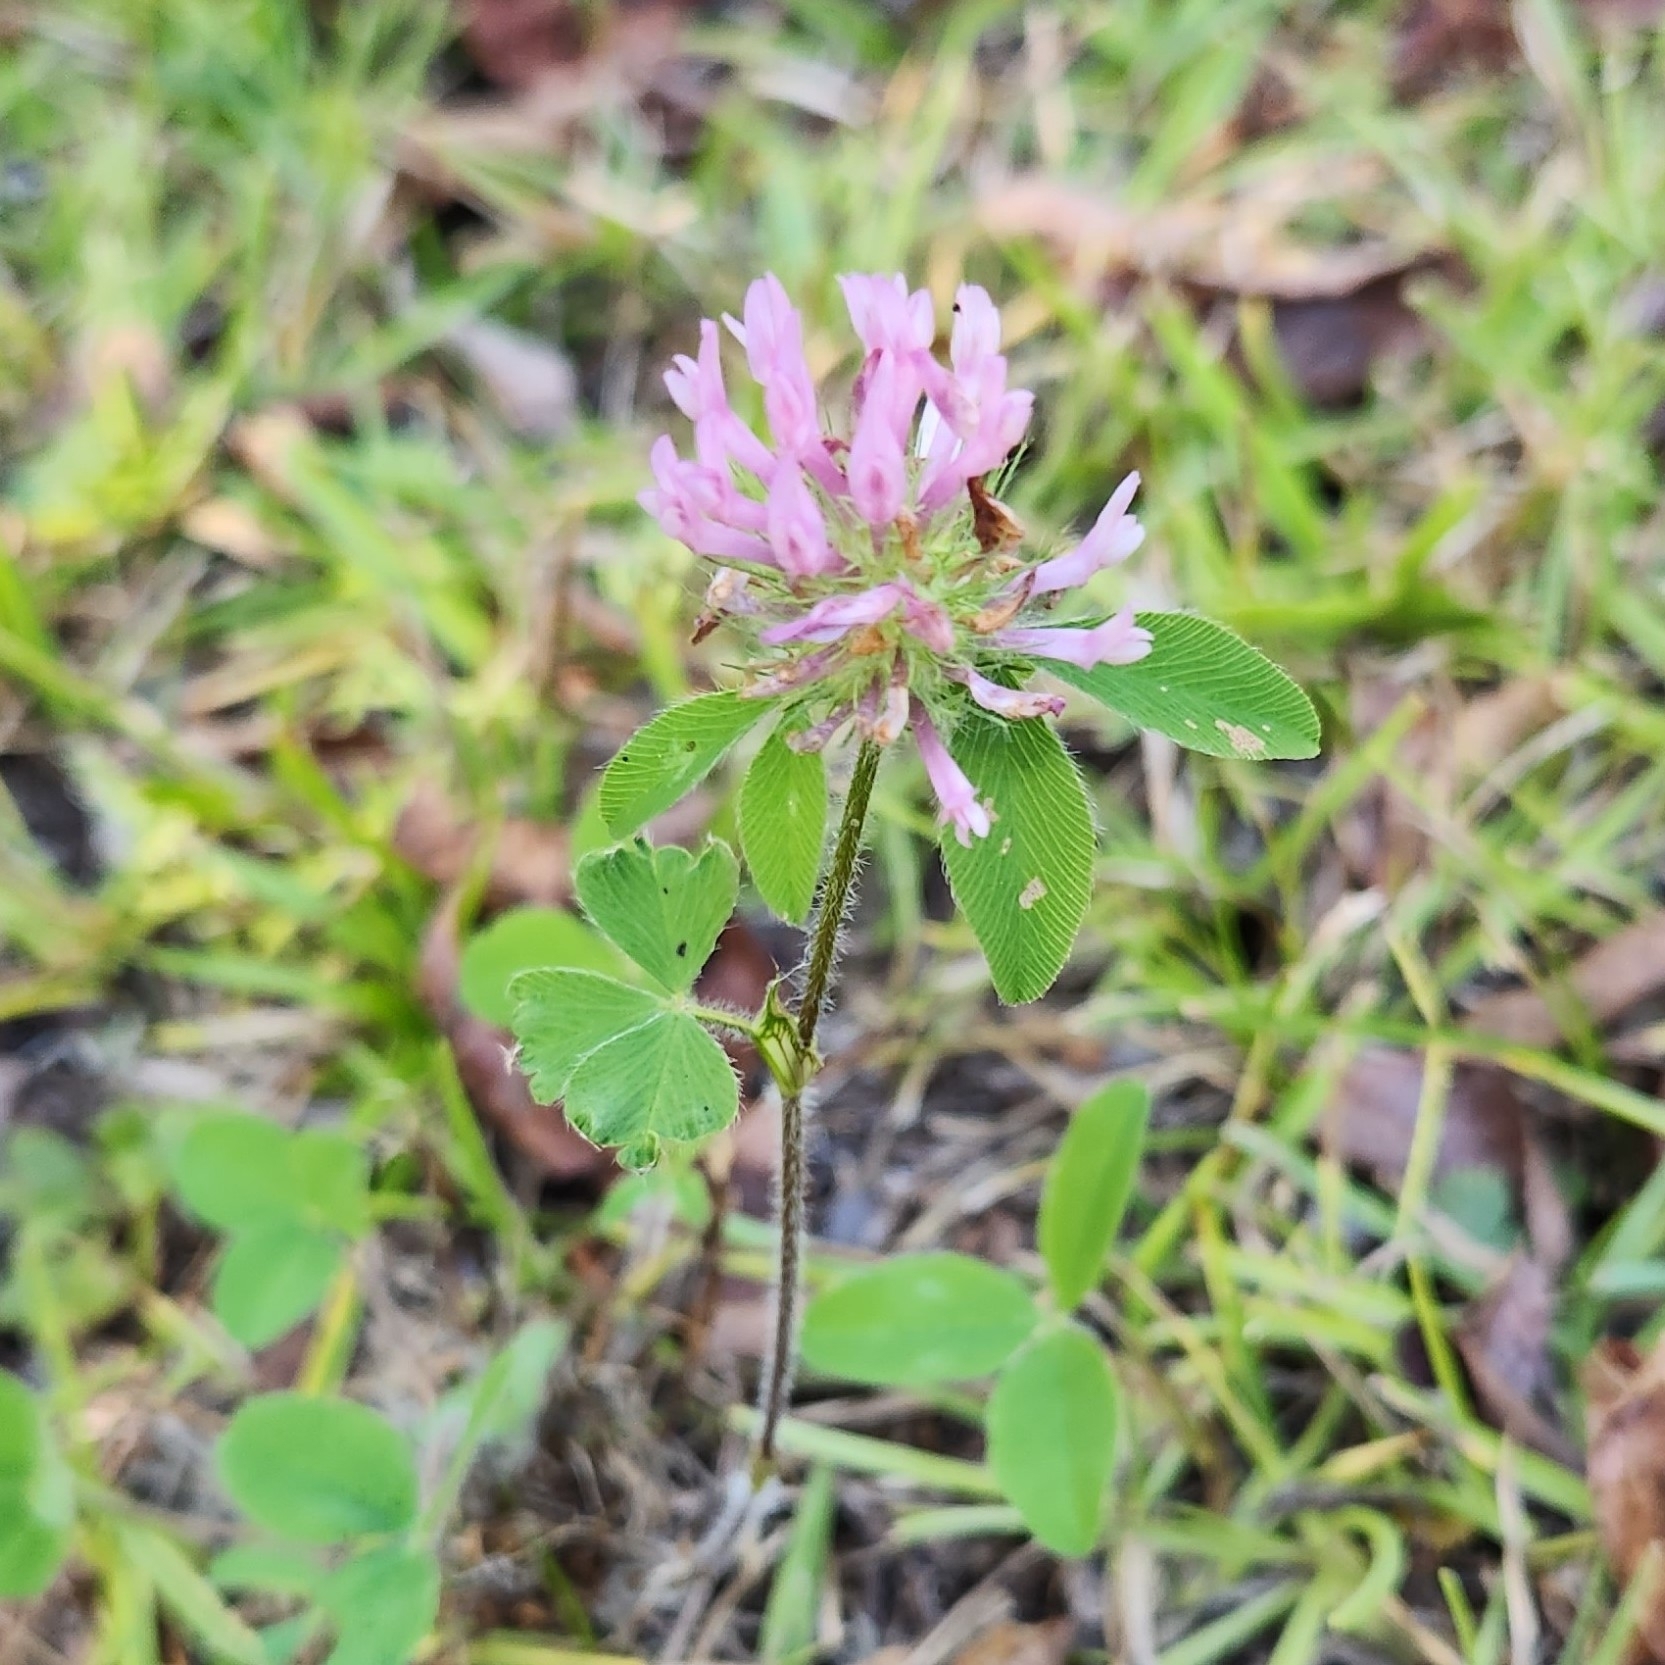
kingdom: Plantae
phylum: Tracheophyta
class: Magnoliopsida
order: Fabales
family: Fabaceae
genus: Trifolium
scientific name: Trifolium pratense
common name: Red clover
